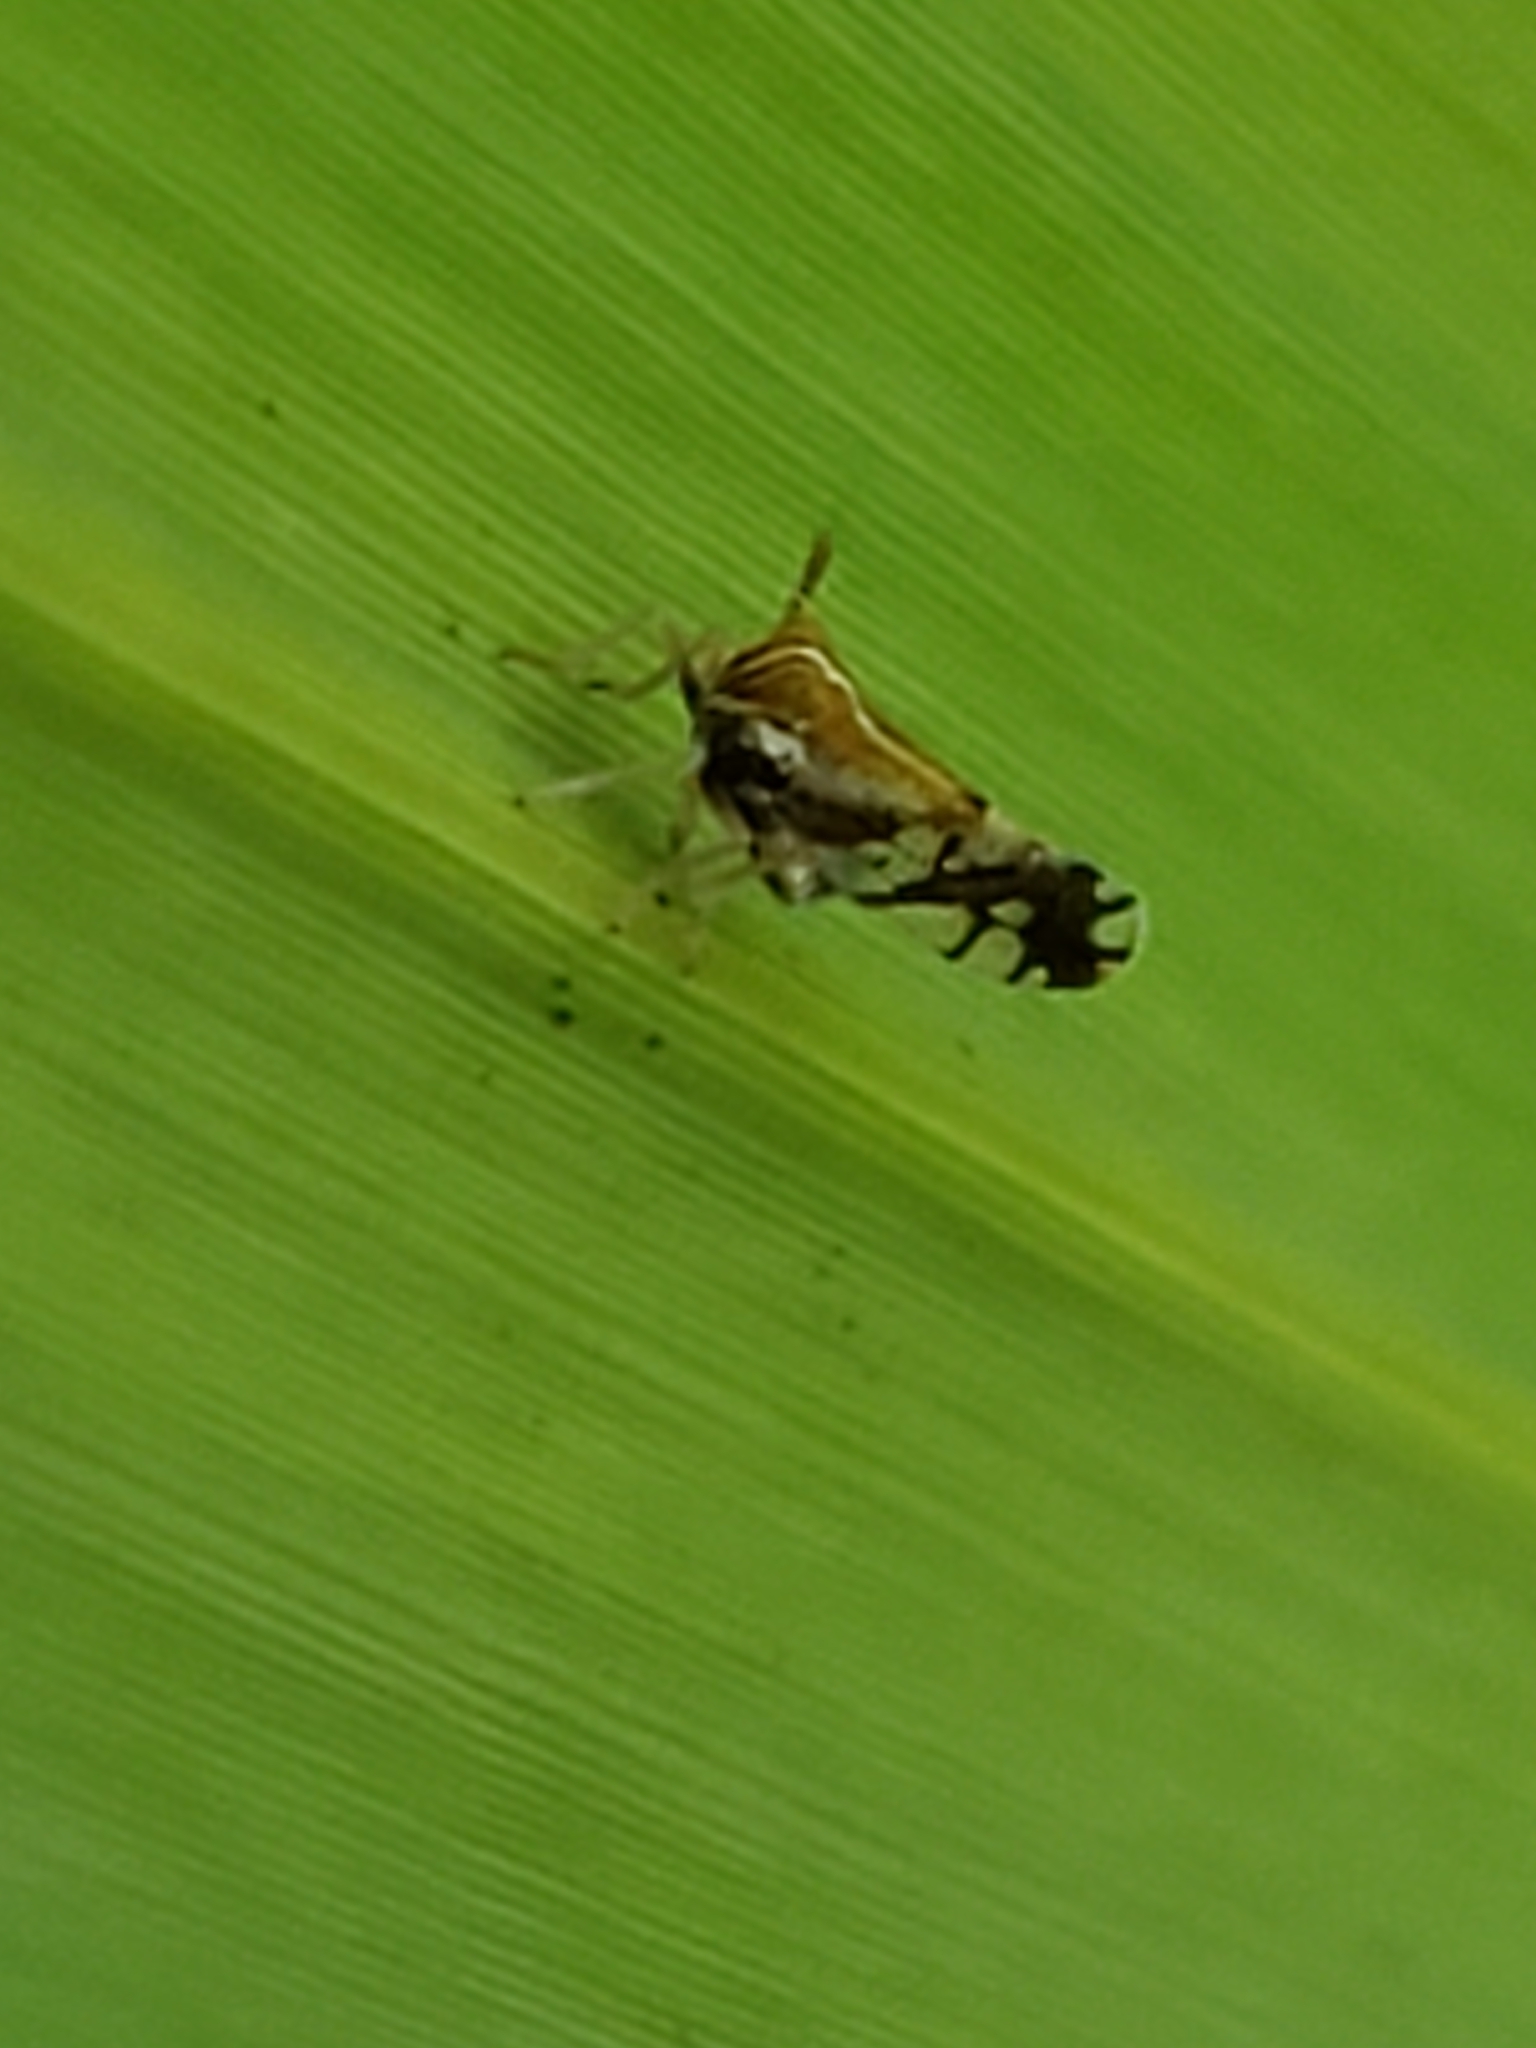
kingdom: Animalia
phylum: Arthropoda
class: Insecta
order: Hemiptera
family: Delphacidae
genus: Liburniella
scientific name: Liburniella ornata
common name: Ornate planthopper
